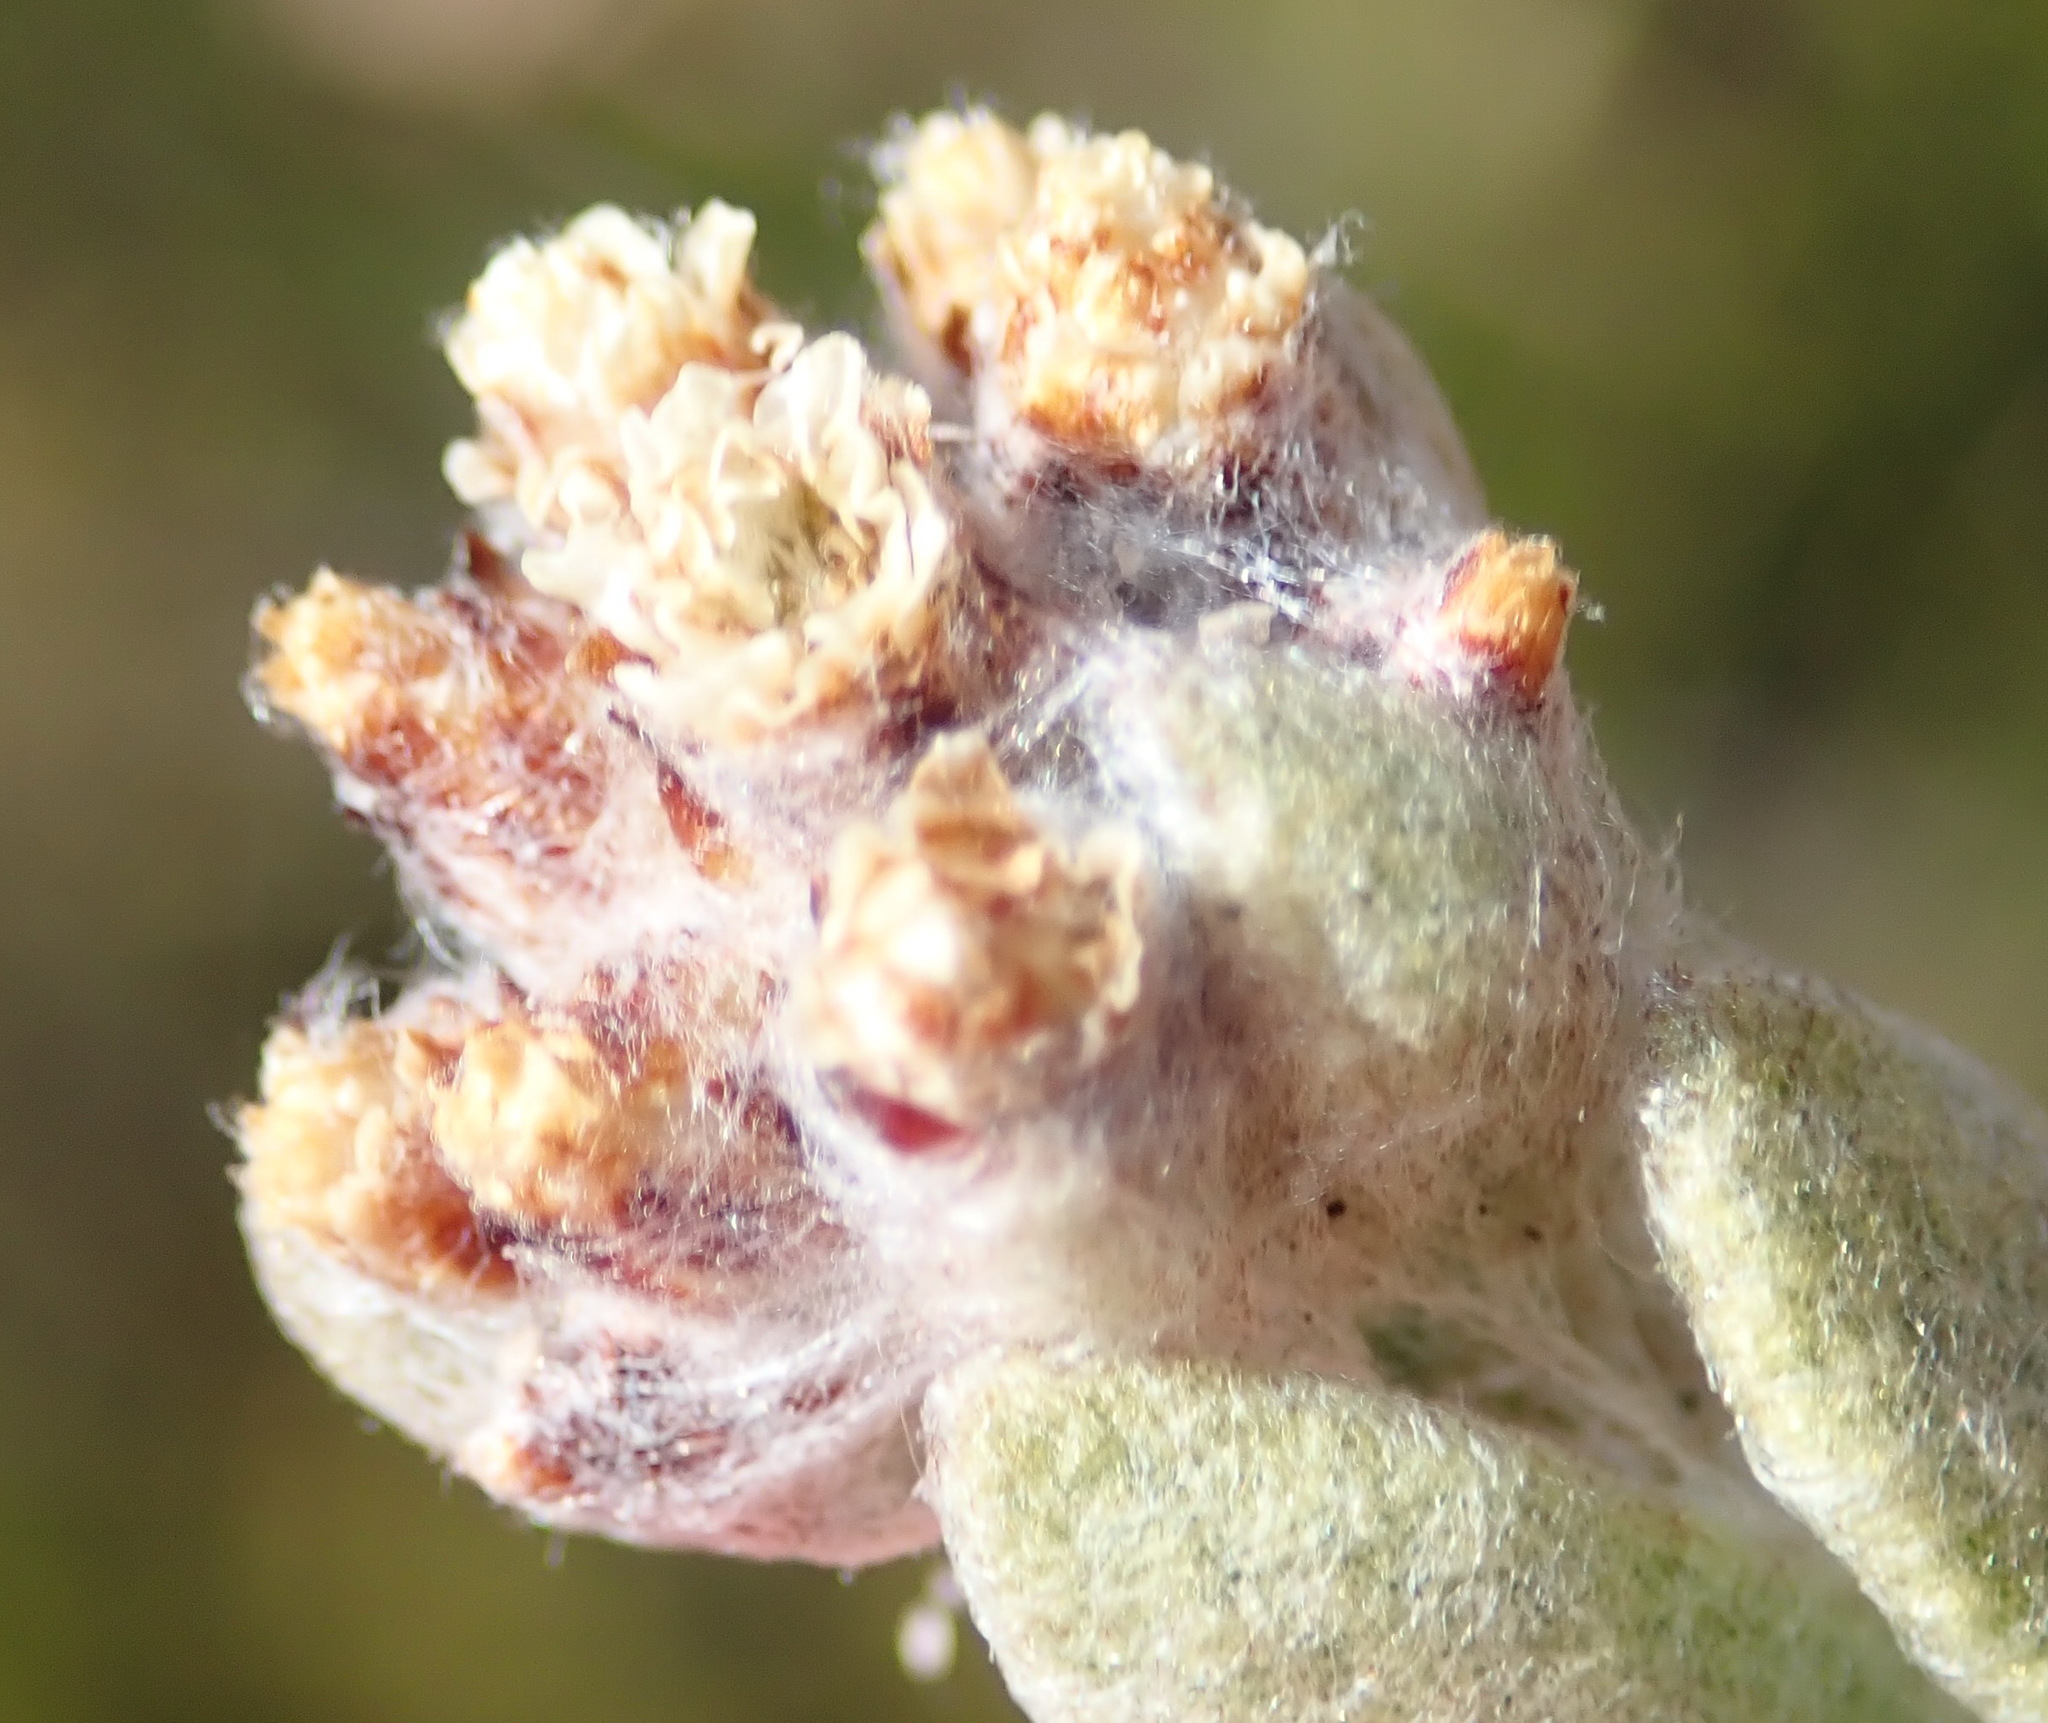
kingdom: Plantae
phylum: Tracheophyta
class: Magnoliopsida
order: Asterales
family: Asteraceae
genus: Helichrysum
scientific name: Helichrysum rotundifolium
